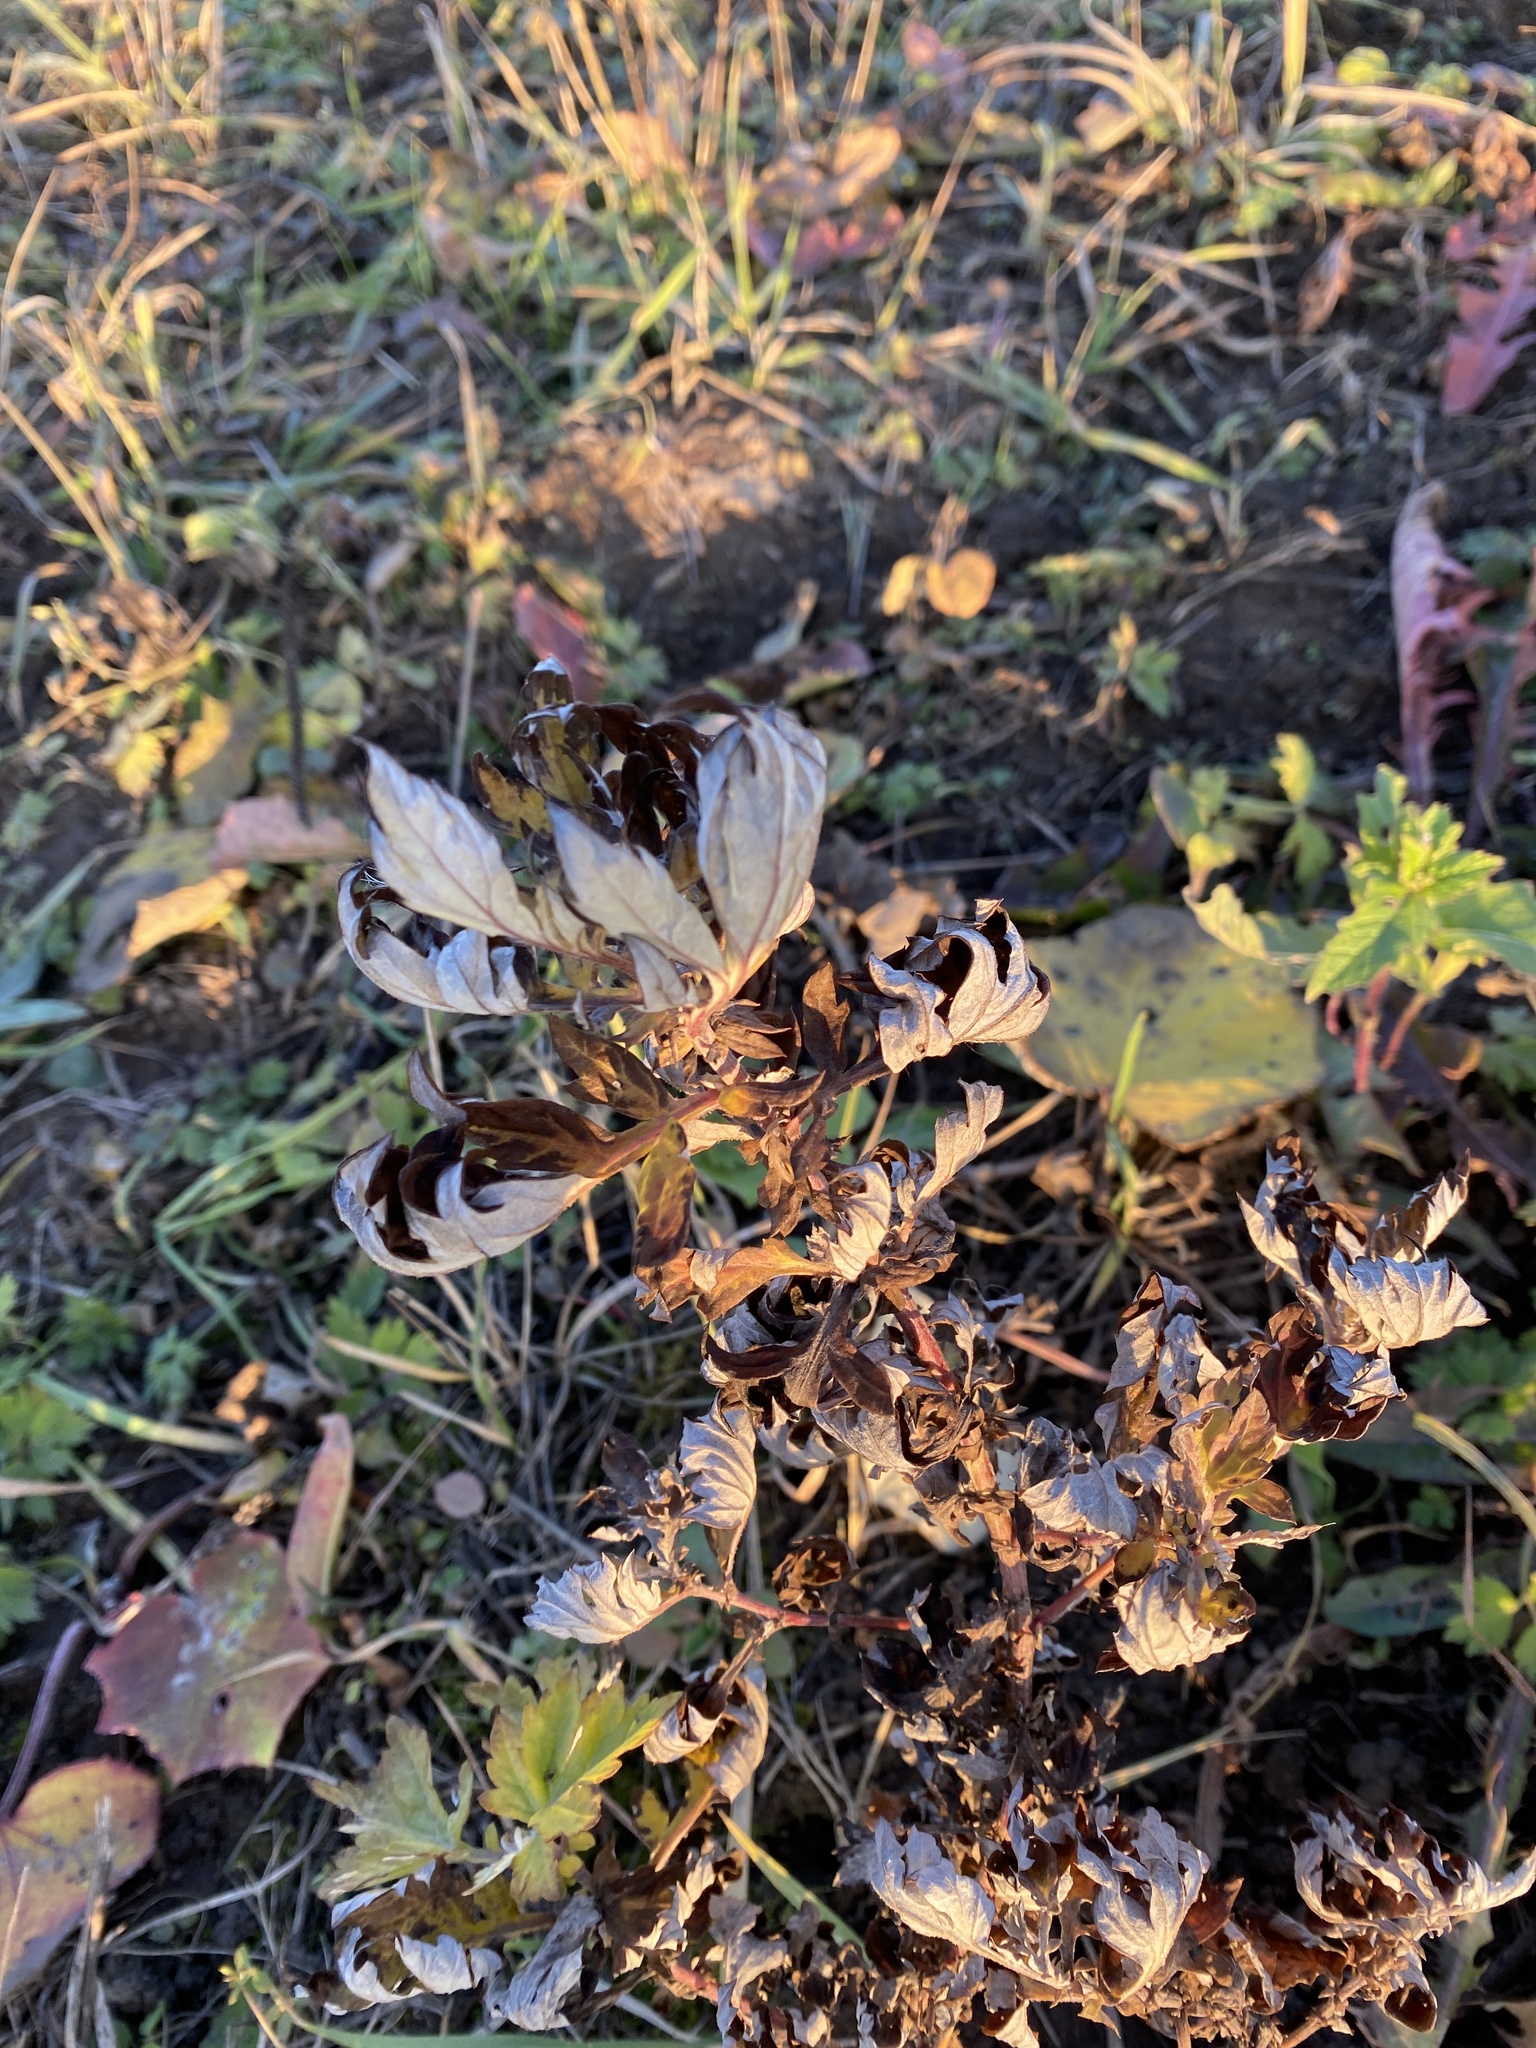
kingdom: Plantae
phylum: Tracheophyta
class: Magnoliopsida
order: Asterales
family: Asteraceae
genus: Artemisia
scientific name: Artemisia vulgaris
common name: Mugwort
